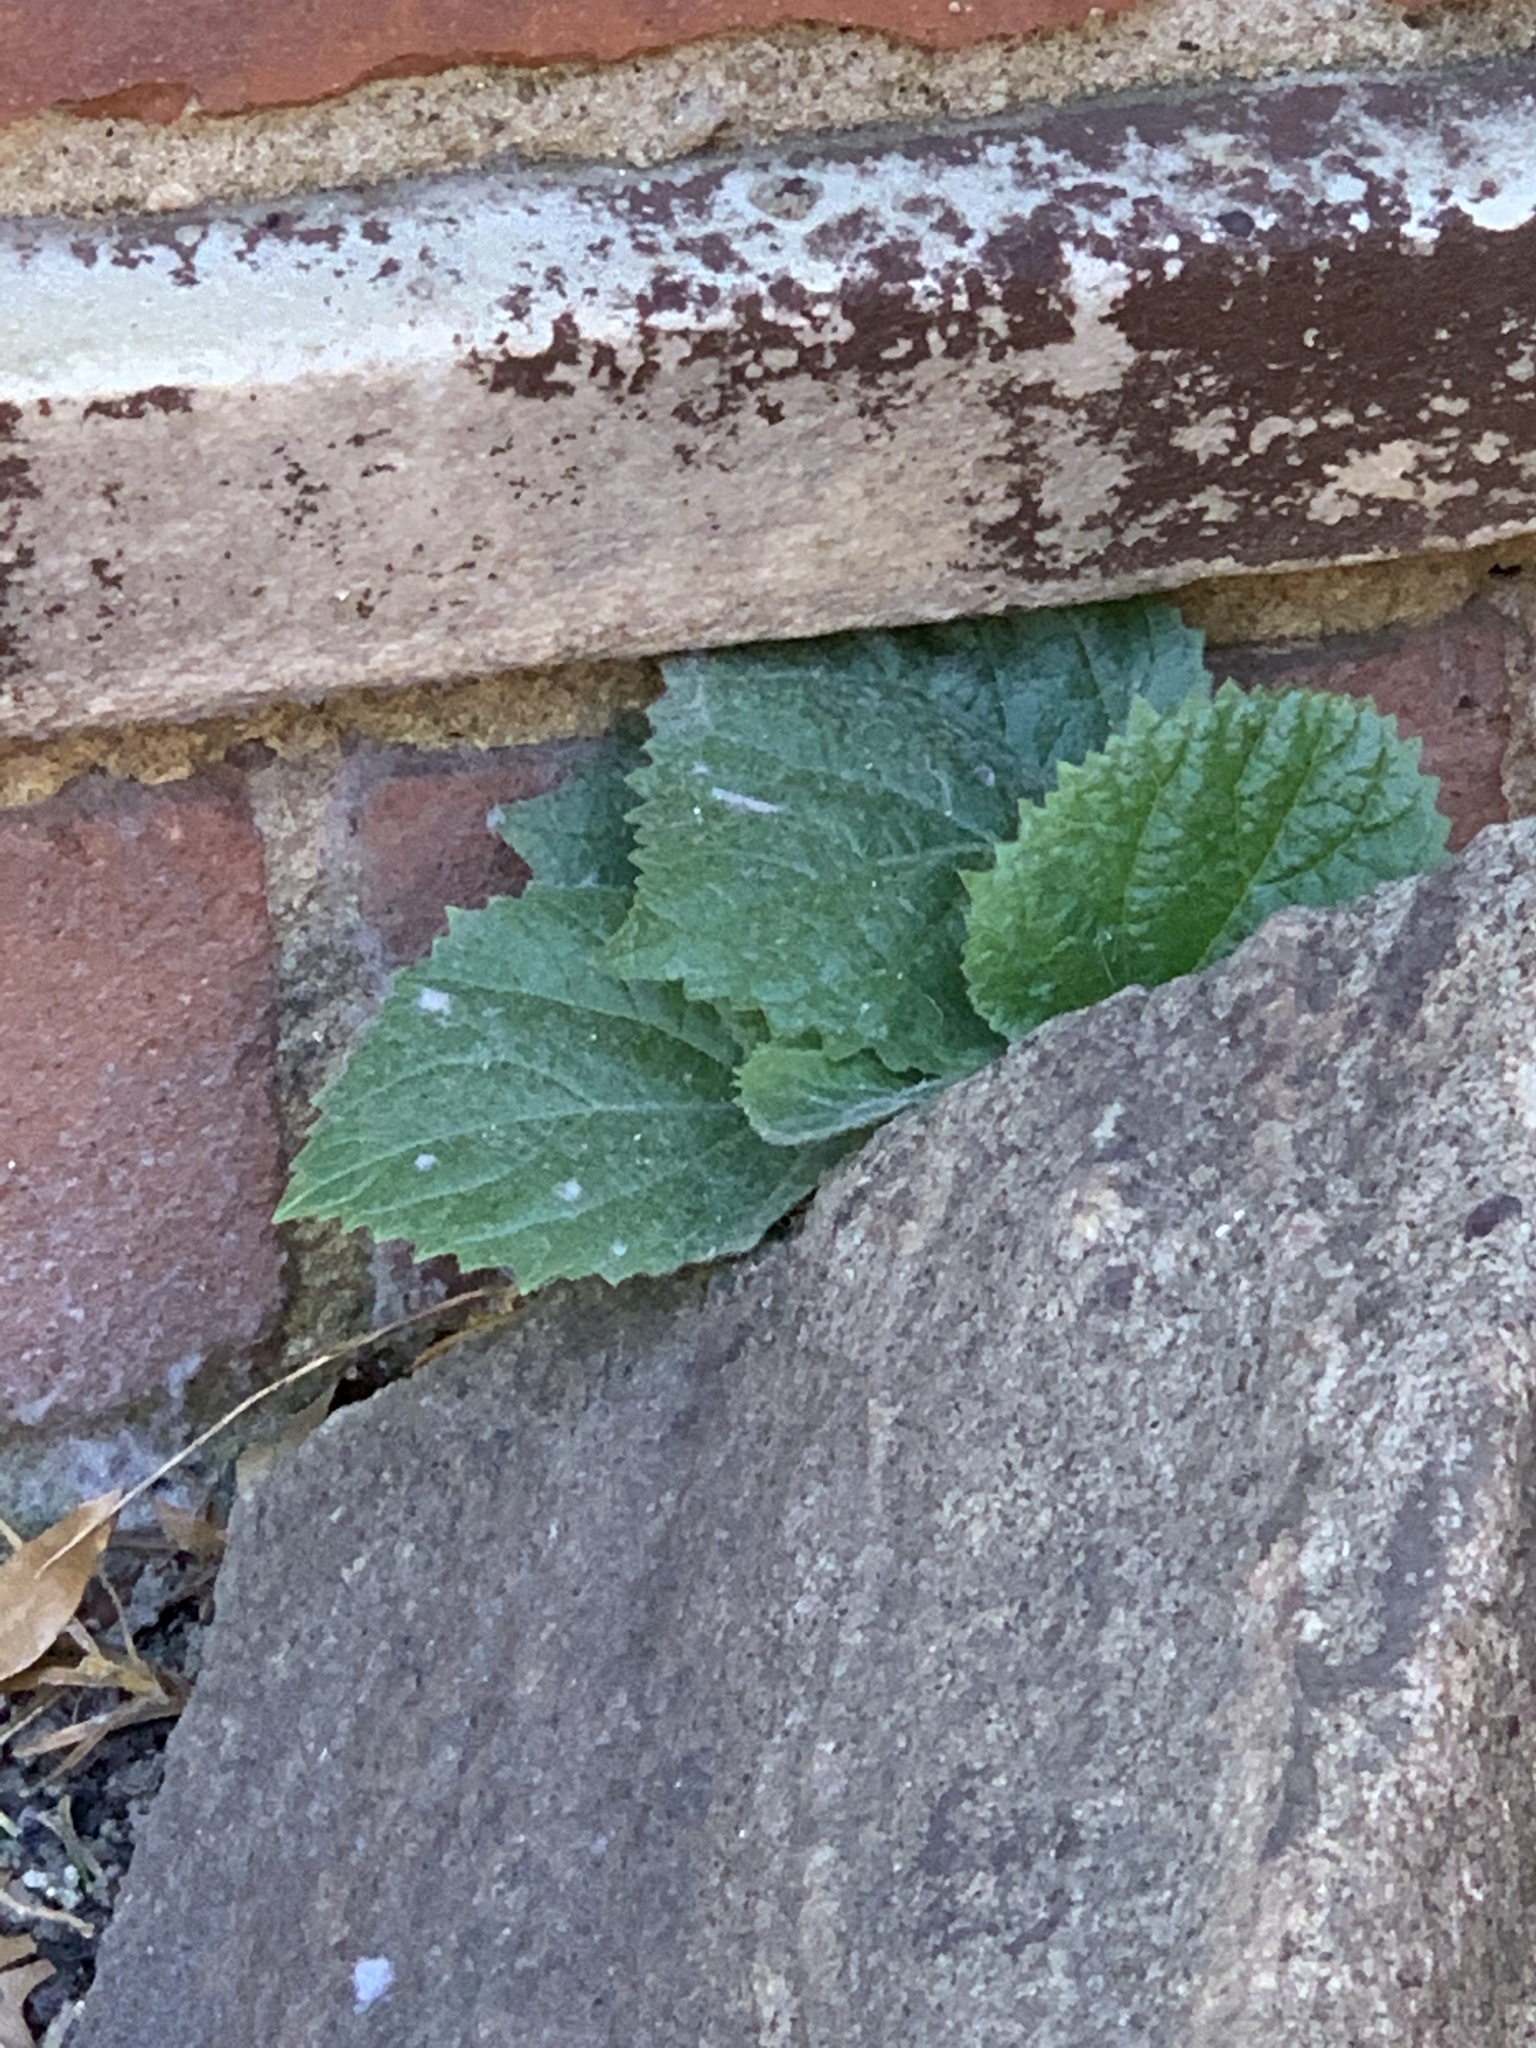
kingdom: Plantae
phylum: Tracheophyta
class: Magnoliopsida
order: Lamiales
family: Paulowniaceae
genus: Paulownia
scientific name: Paulownia tomentosa
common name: Foxglove-tree
